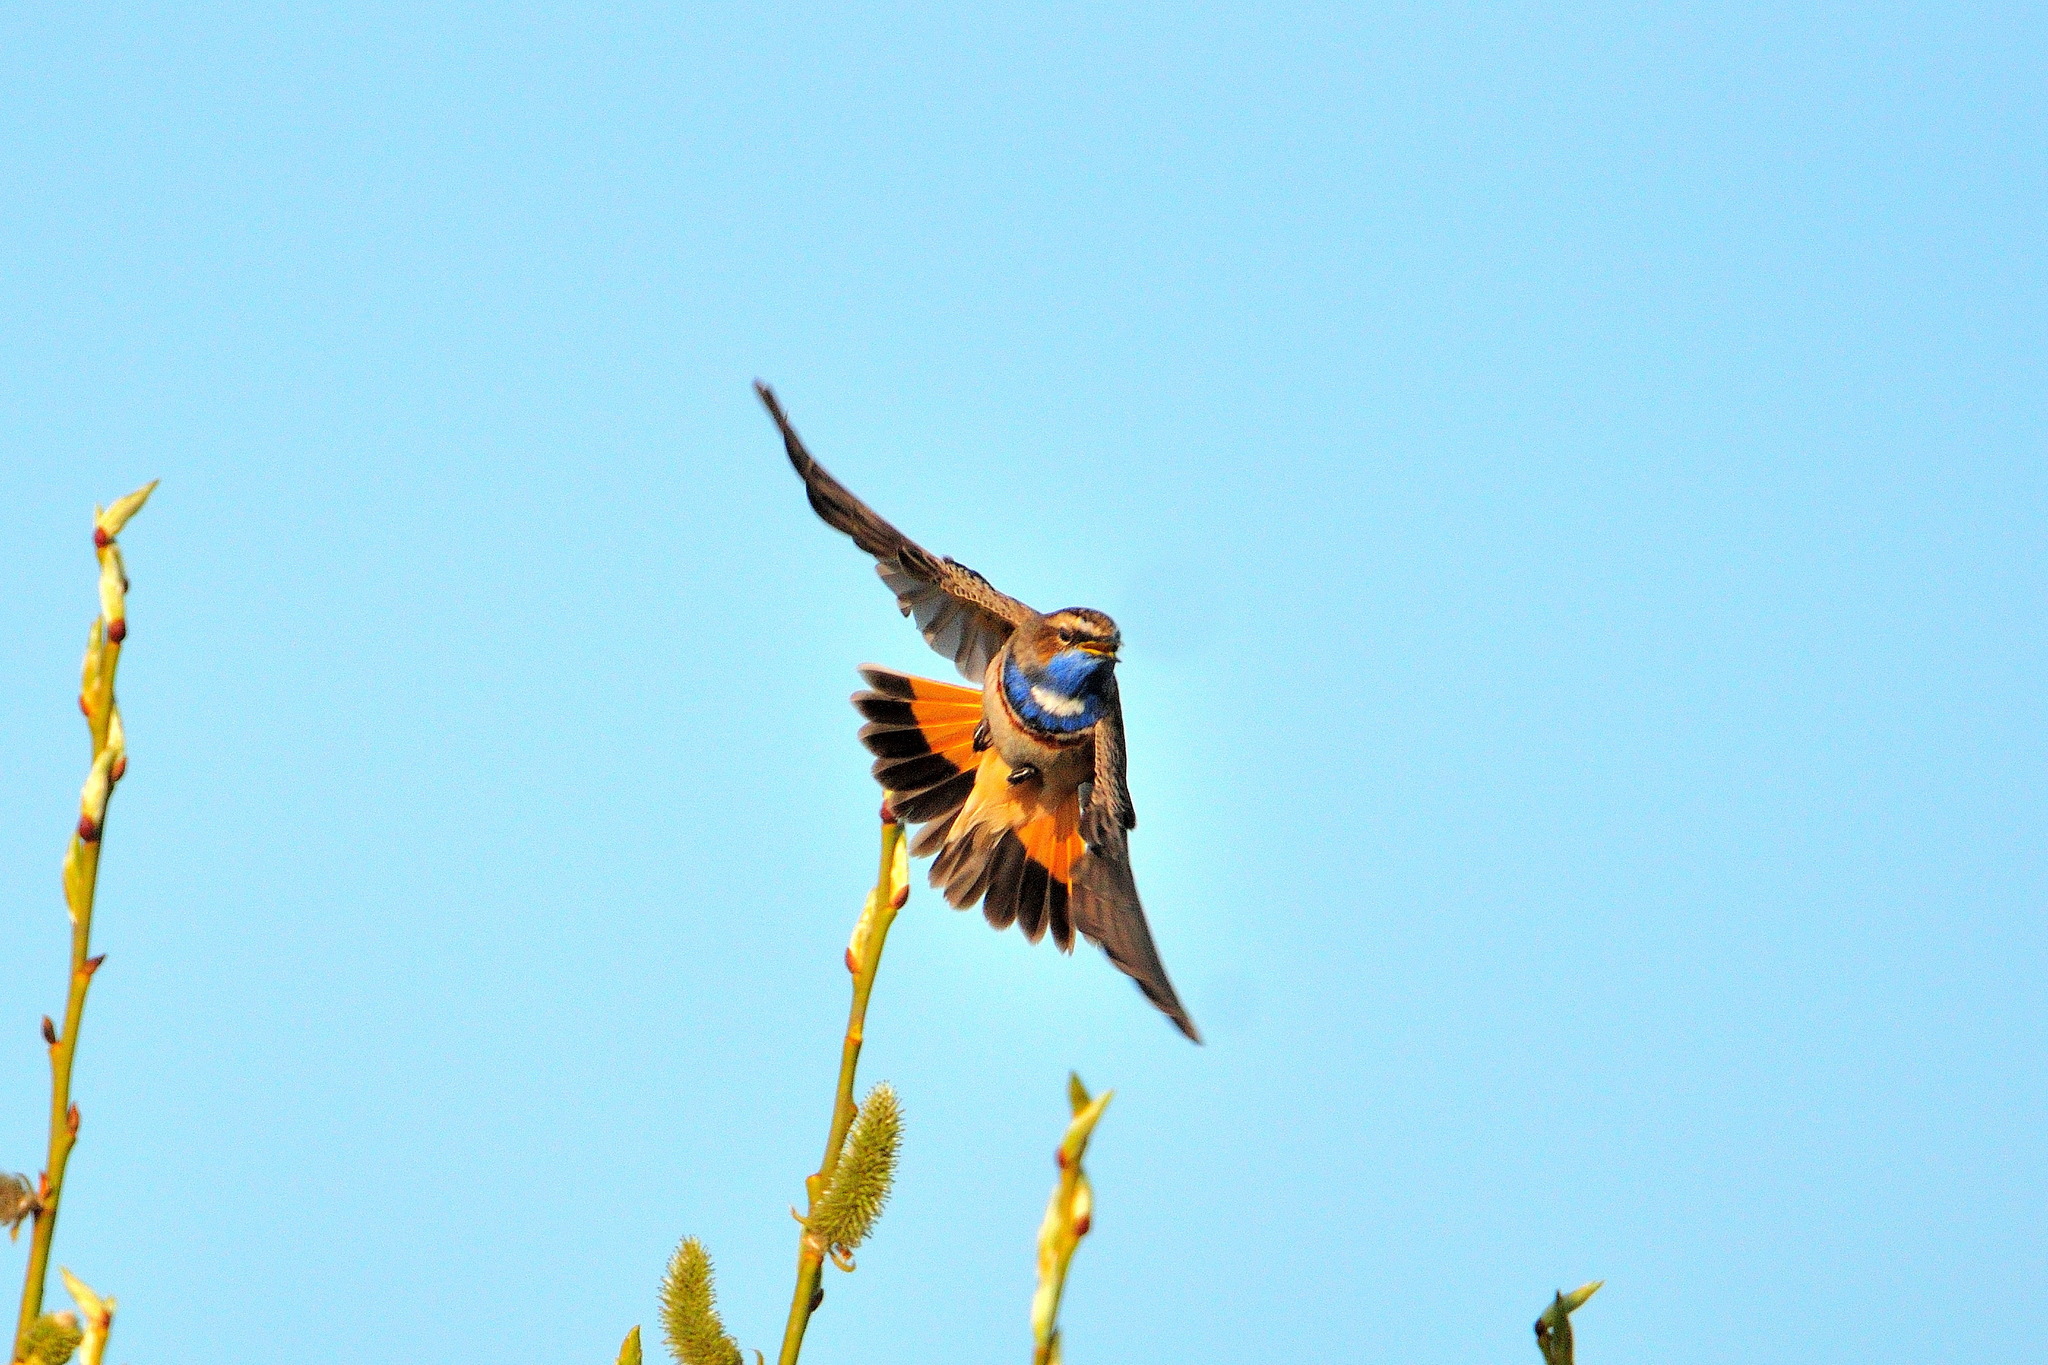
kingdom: Animalia
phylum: Chordata
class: Aves
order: Passeriformes
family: Muscicapidae
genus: Luscinia
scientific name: Luscinia svecica
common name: Bluethroat
